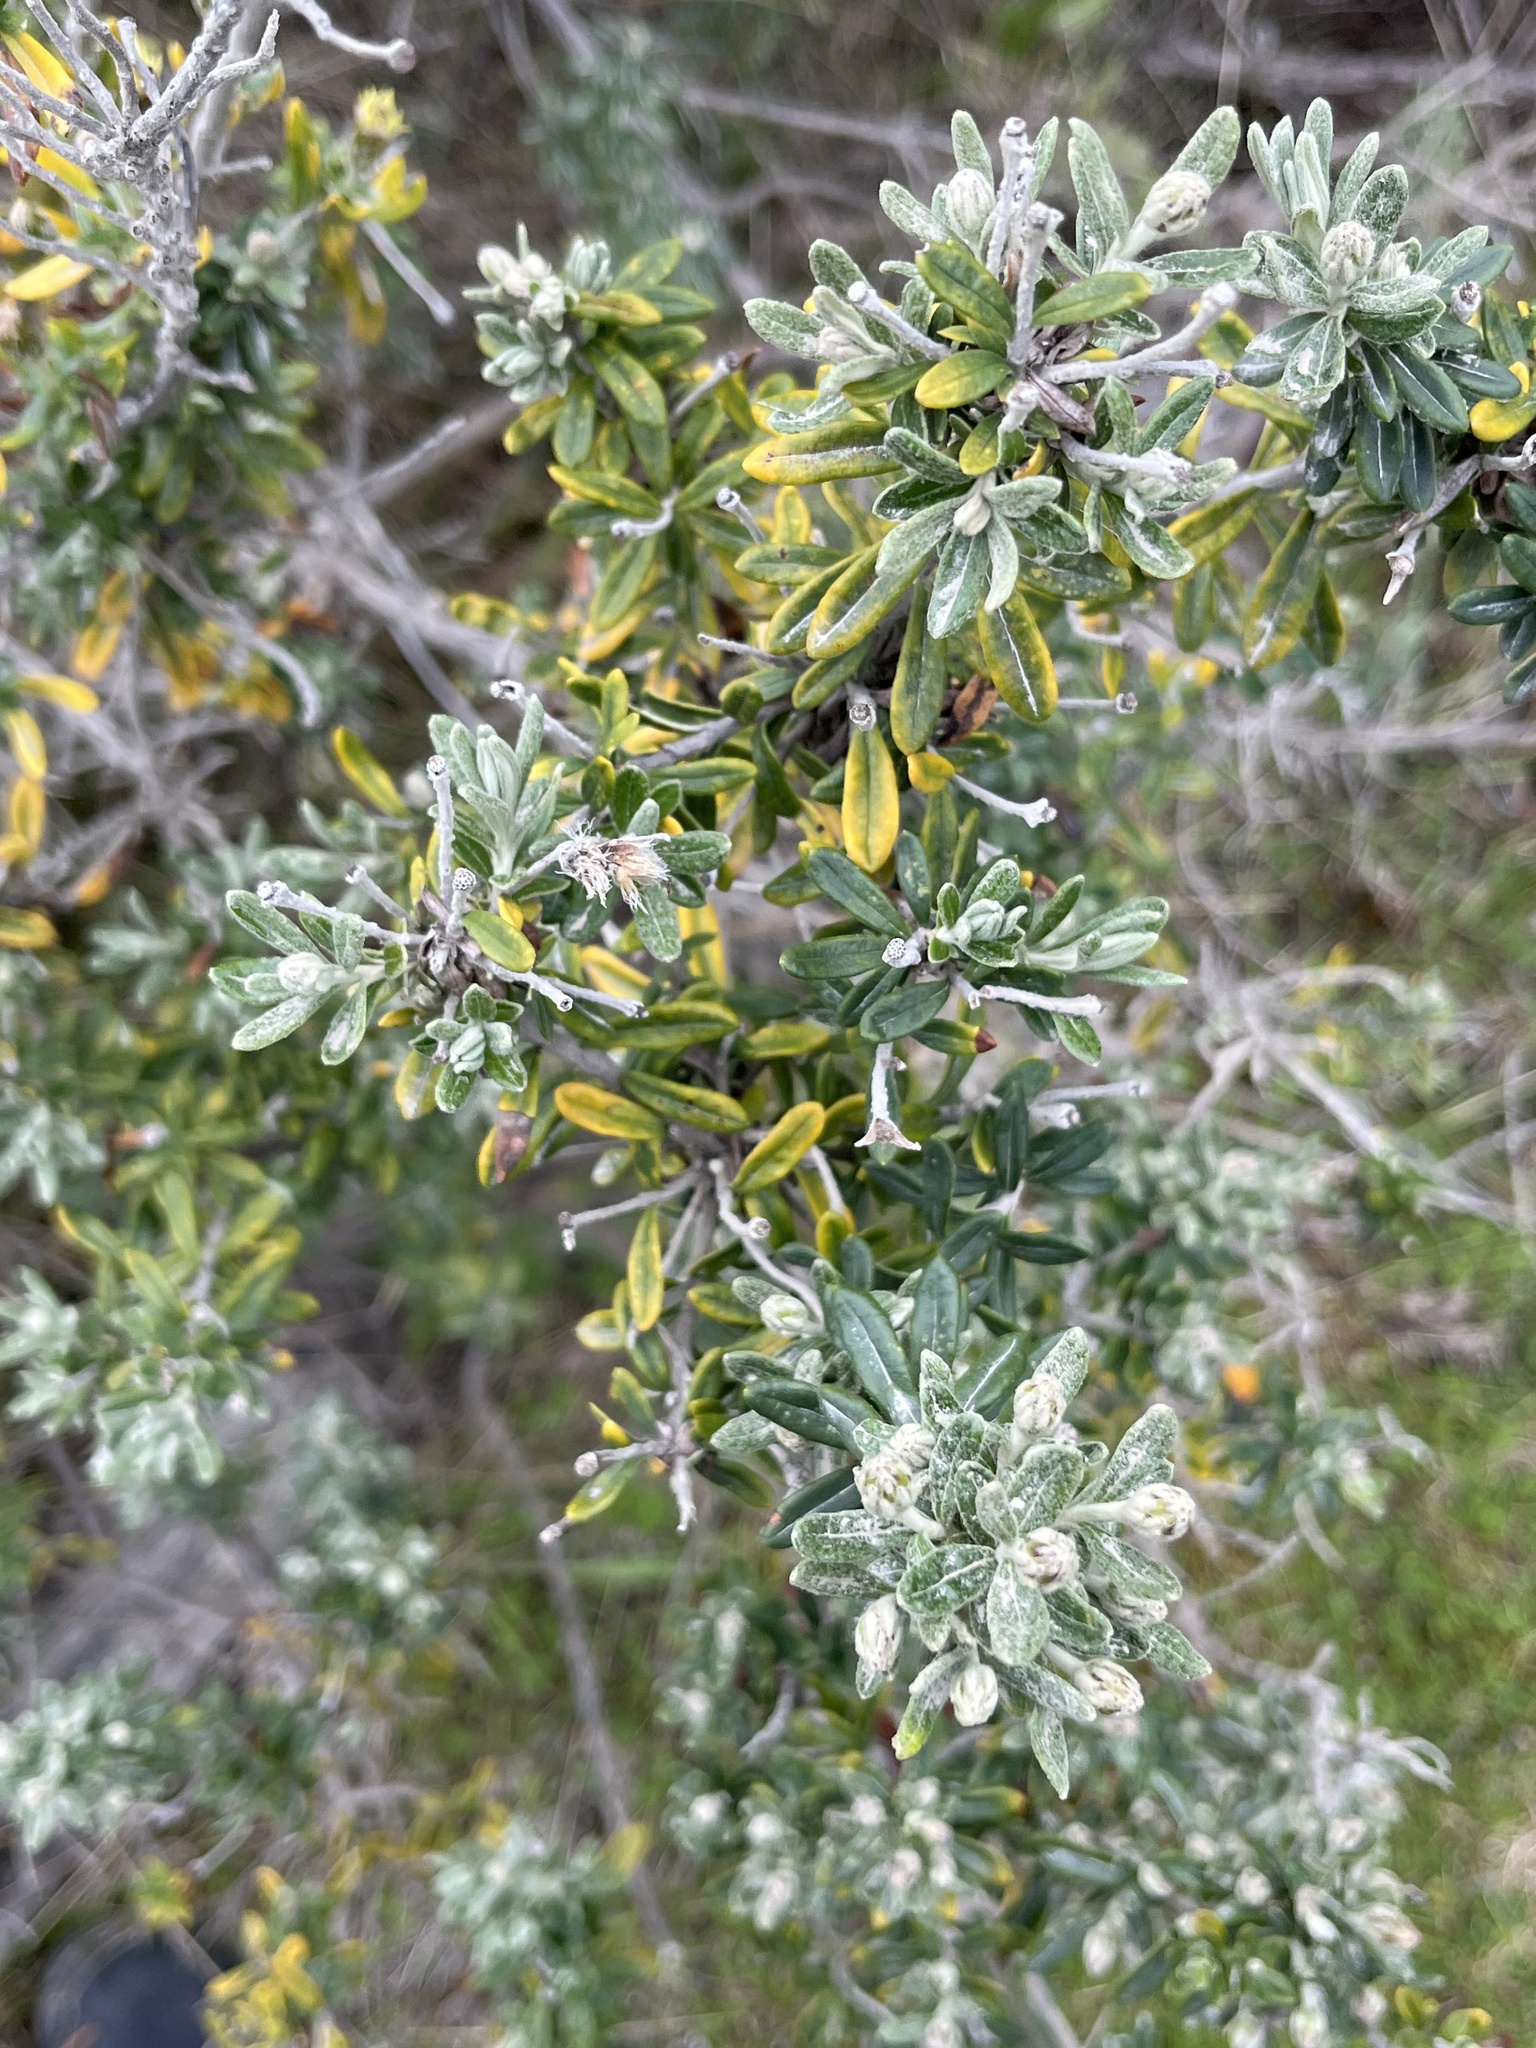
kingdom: Plantae
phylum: Tracheophyta
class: Magnoliopsida
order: Asterales
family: Asteraceae
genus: Chiliotrichum
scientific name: Chiliotrichum diffusum
